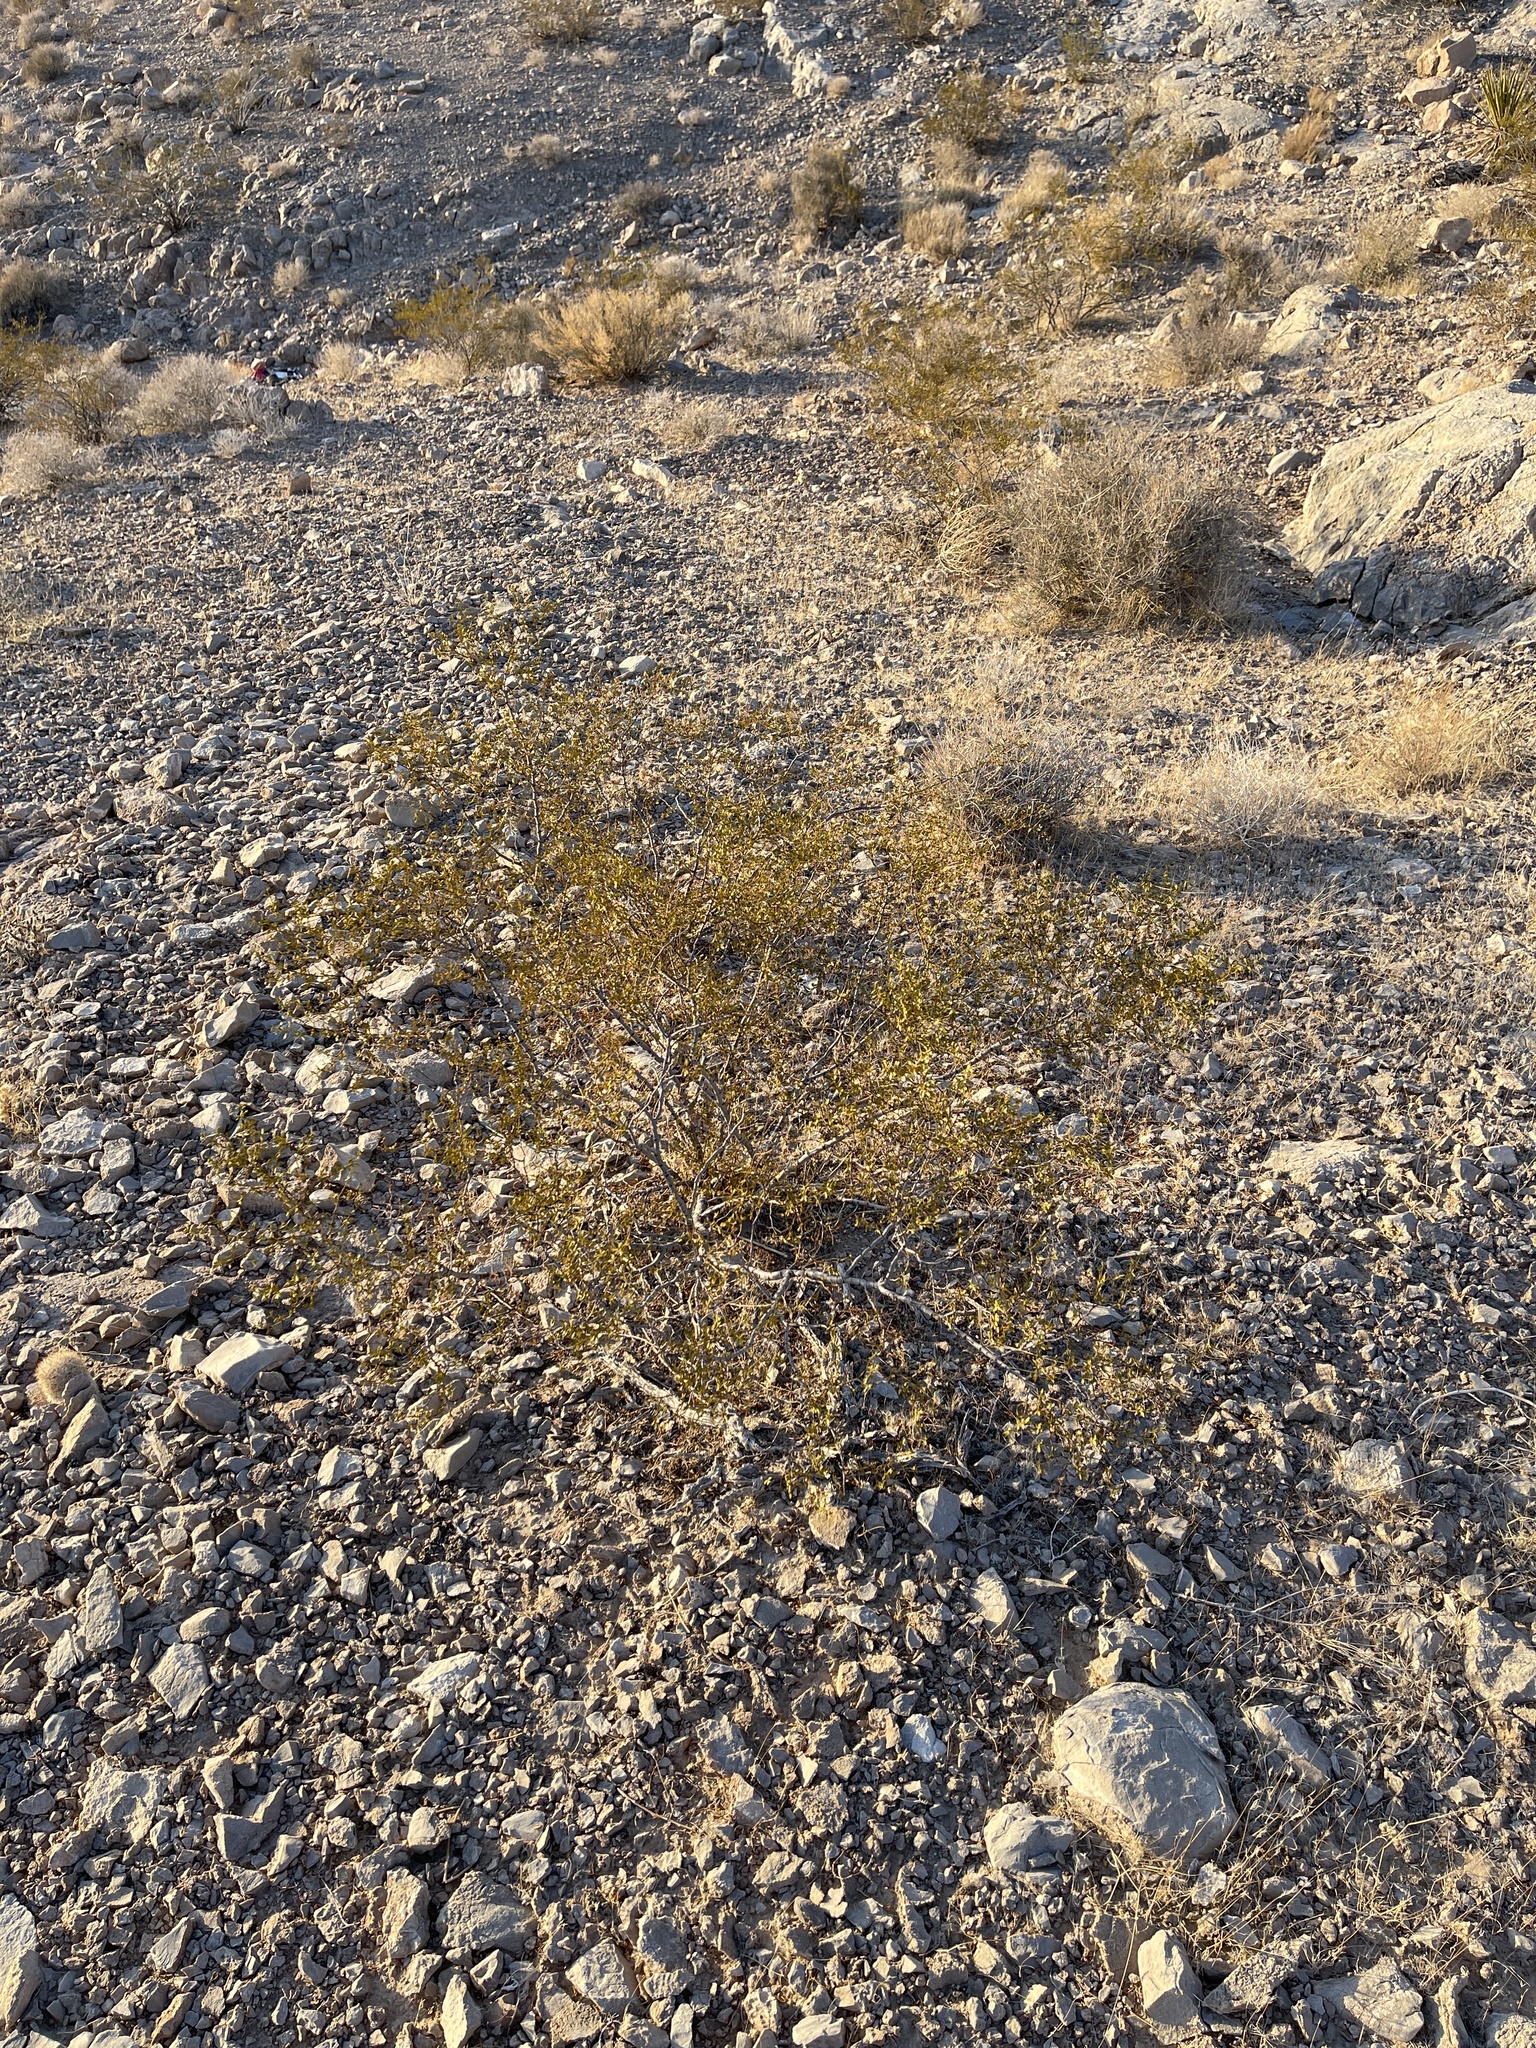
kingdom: Plantae
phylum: Tracheophyta
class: Magnoliopsida
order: Zygophyllales
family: Zygophyllaceae
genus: Larrea
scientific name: Larrea tridentata
